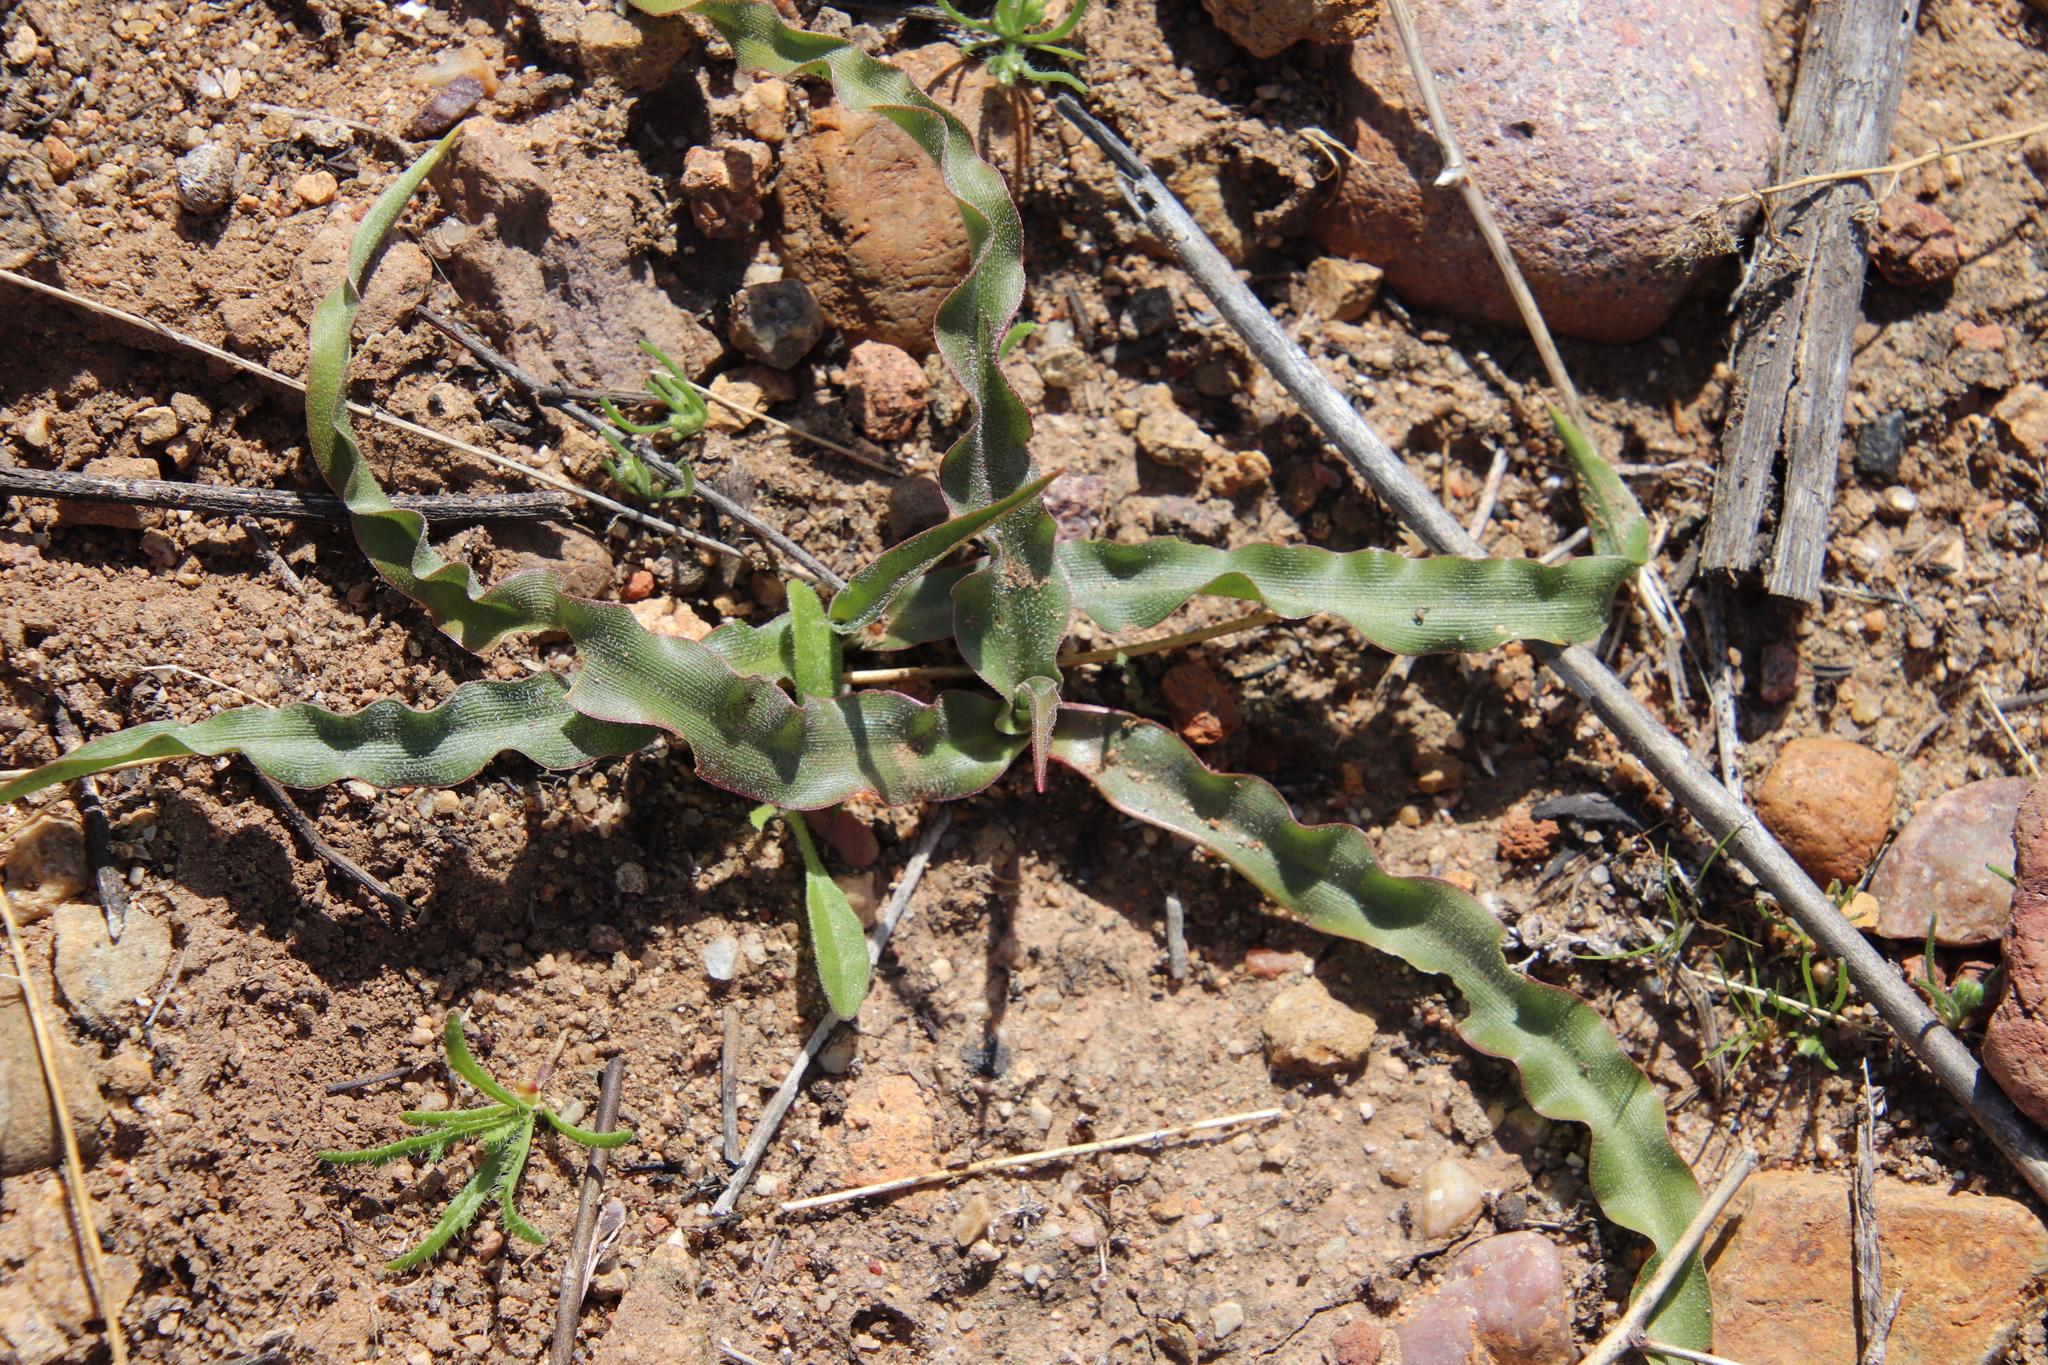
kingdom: Plantae
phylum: Tracheophyta
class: Liliopsida
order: Asparagales
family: Asparagaceae
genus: Hooveria
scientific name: Hooveria parviflora
